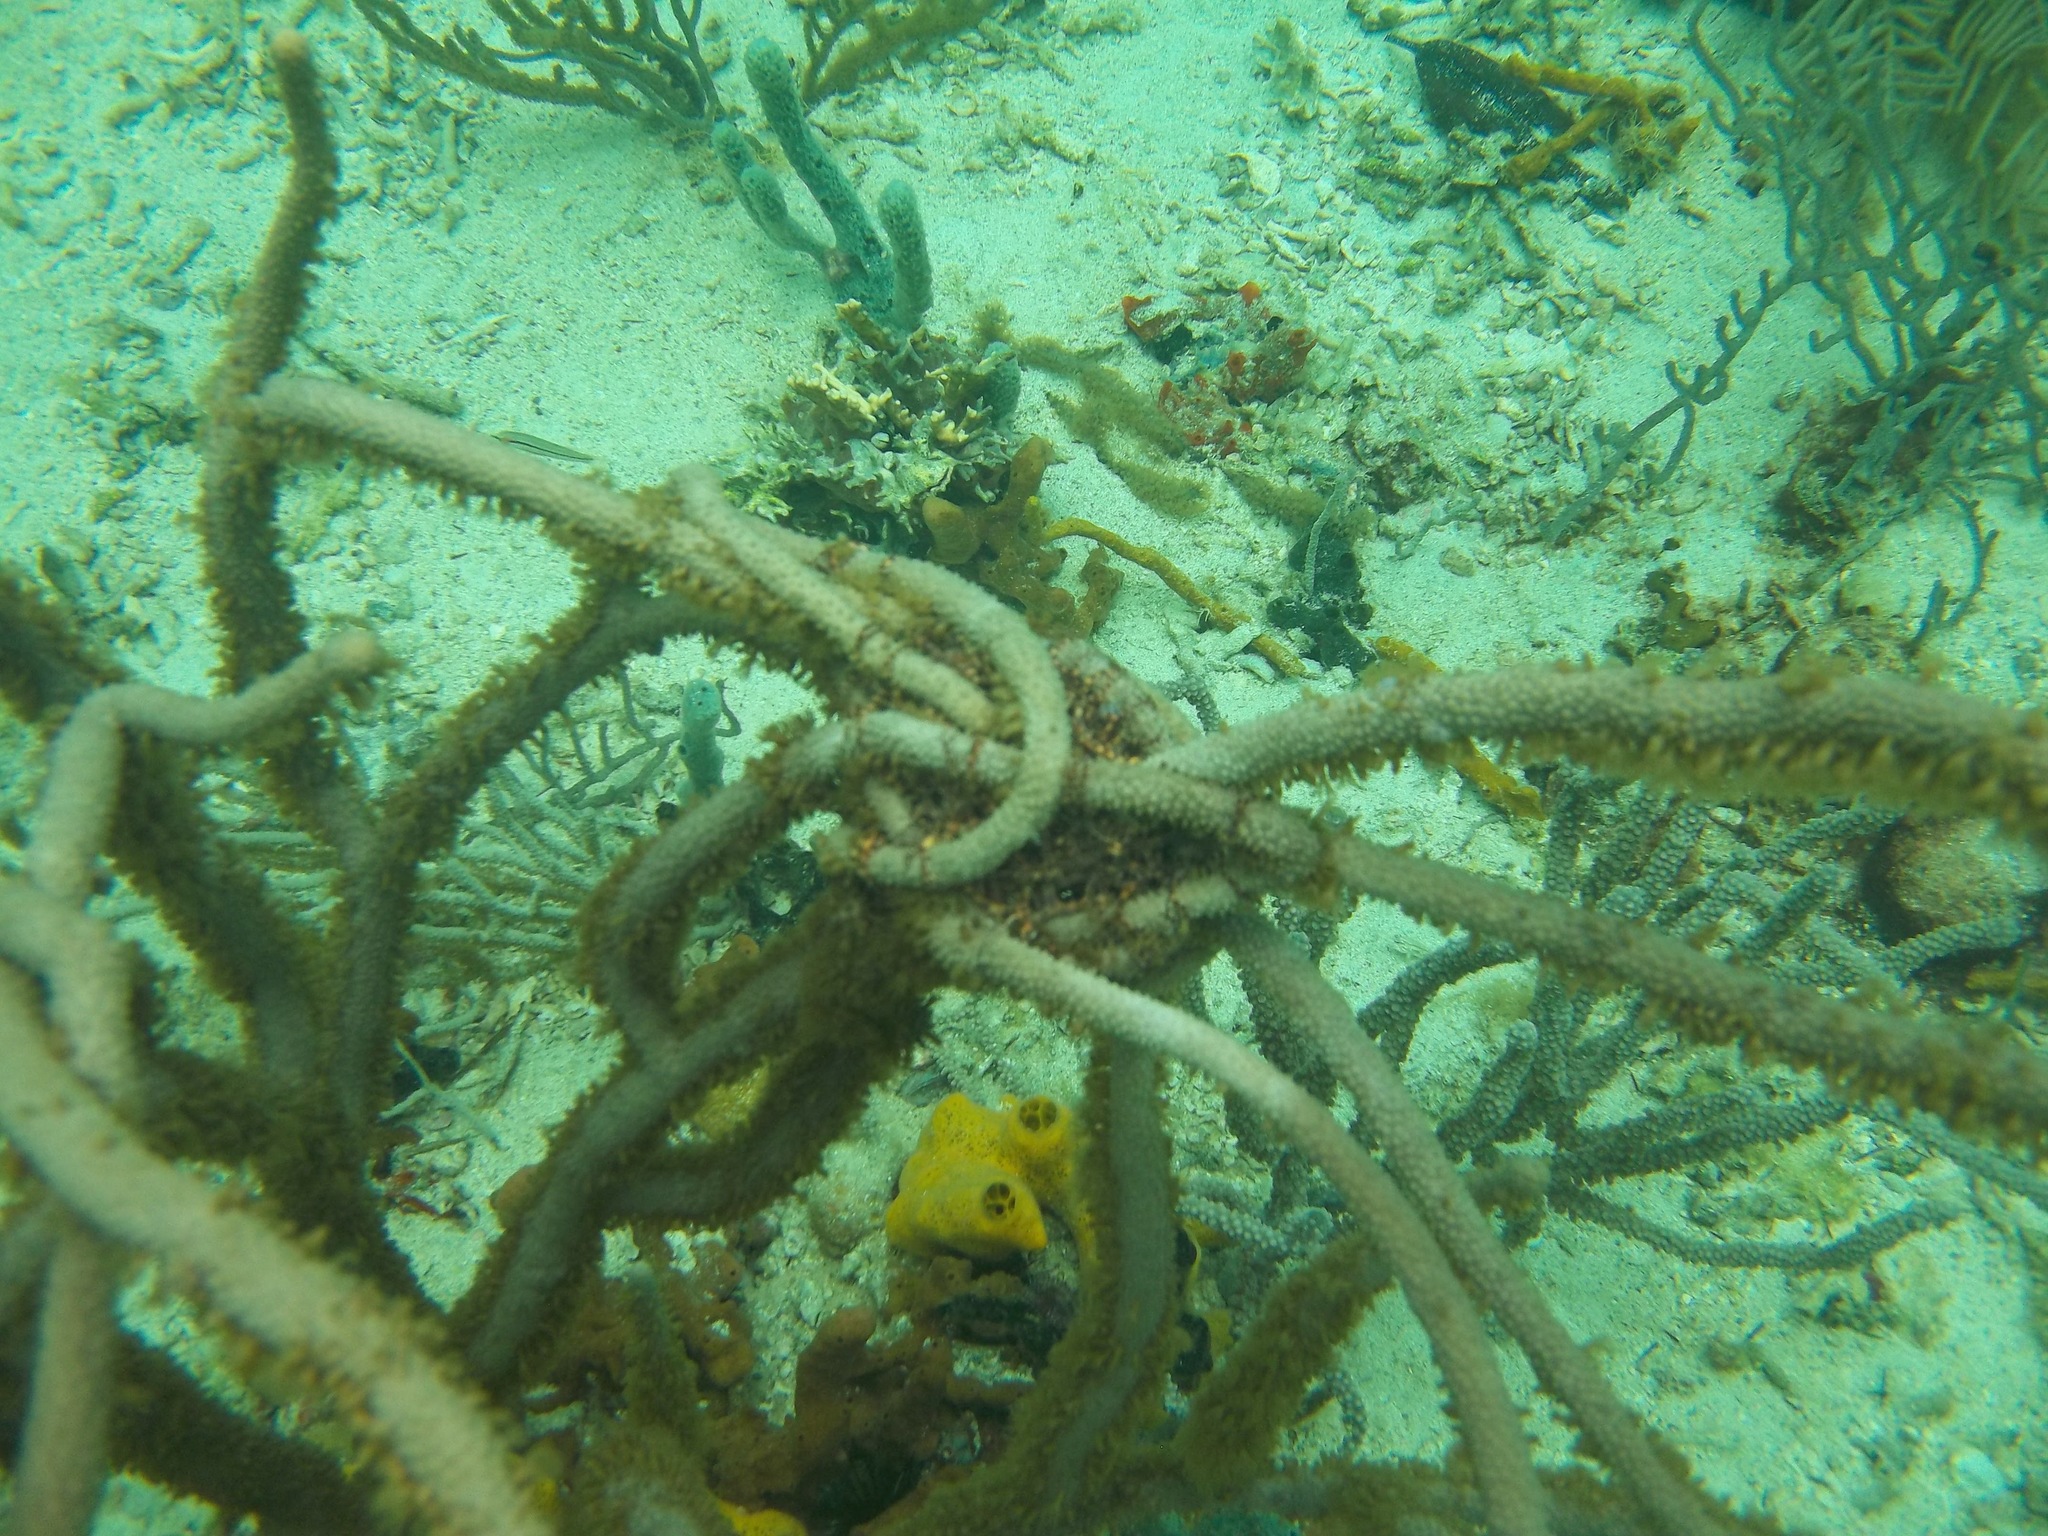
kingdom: Animalia
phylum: Echinodermata
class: Ophiuroidea
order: Euryalida
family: Gorgonocephalidae
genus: Astrophyton
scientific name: Astrophyton muricatum
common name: Basket starfish
